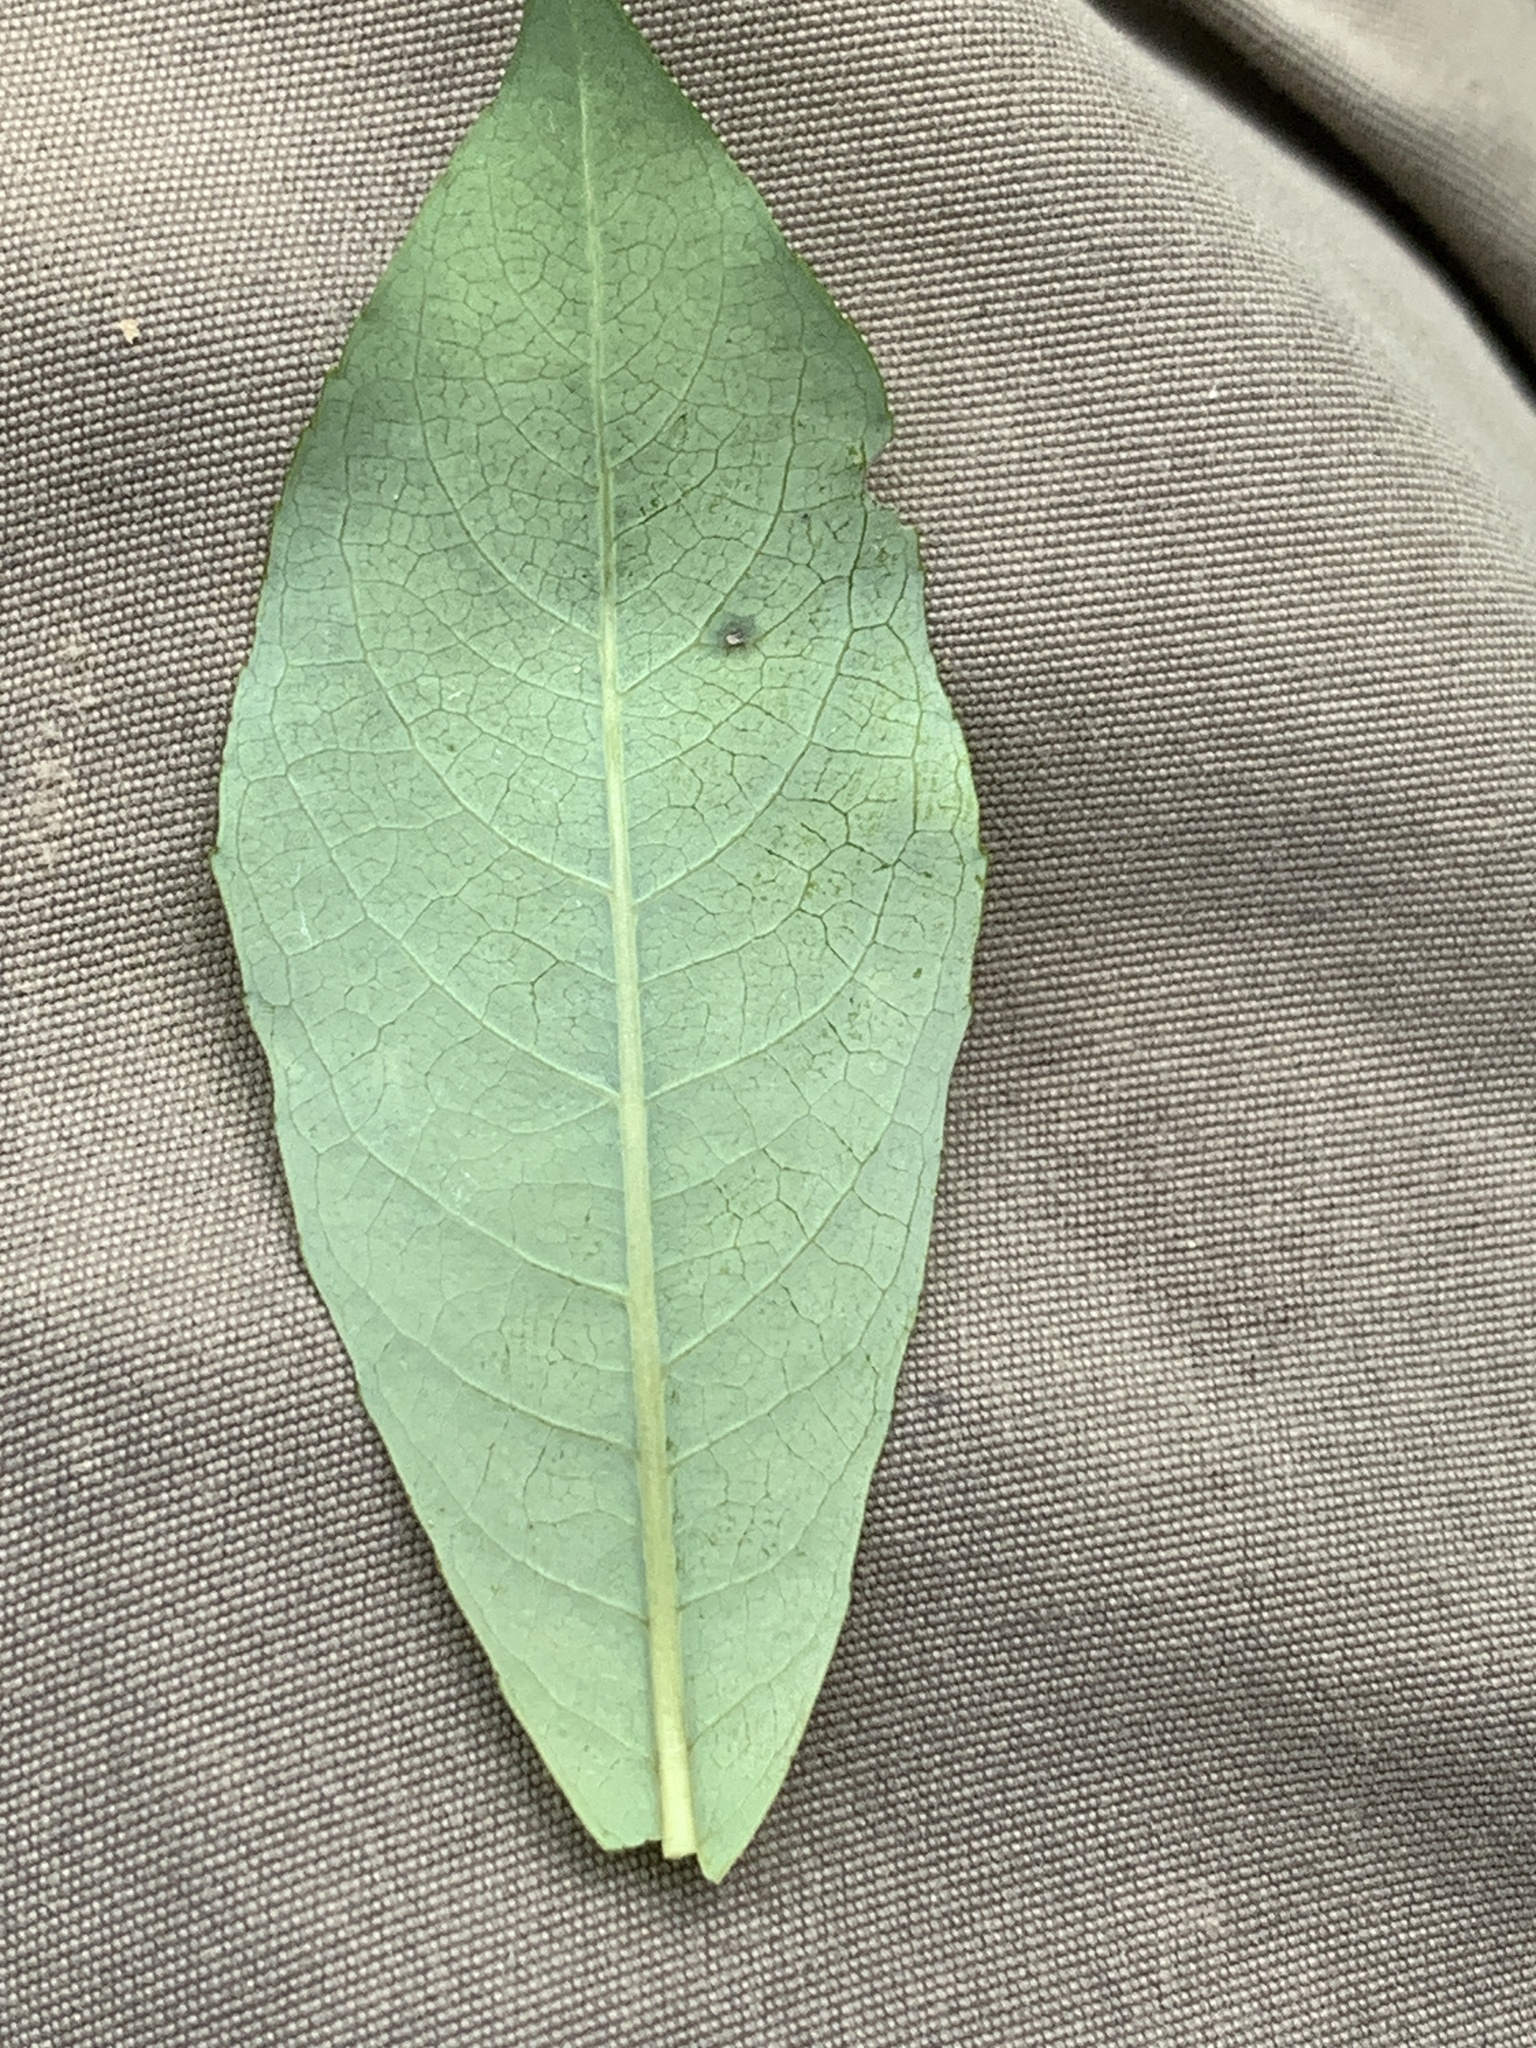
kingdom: Plantae
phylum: Tracheophyta
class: Magnoliopsida
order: Malpighiales
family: Salicaceae
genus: Salix
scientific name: Salix discolor
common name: Glaucous willow
